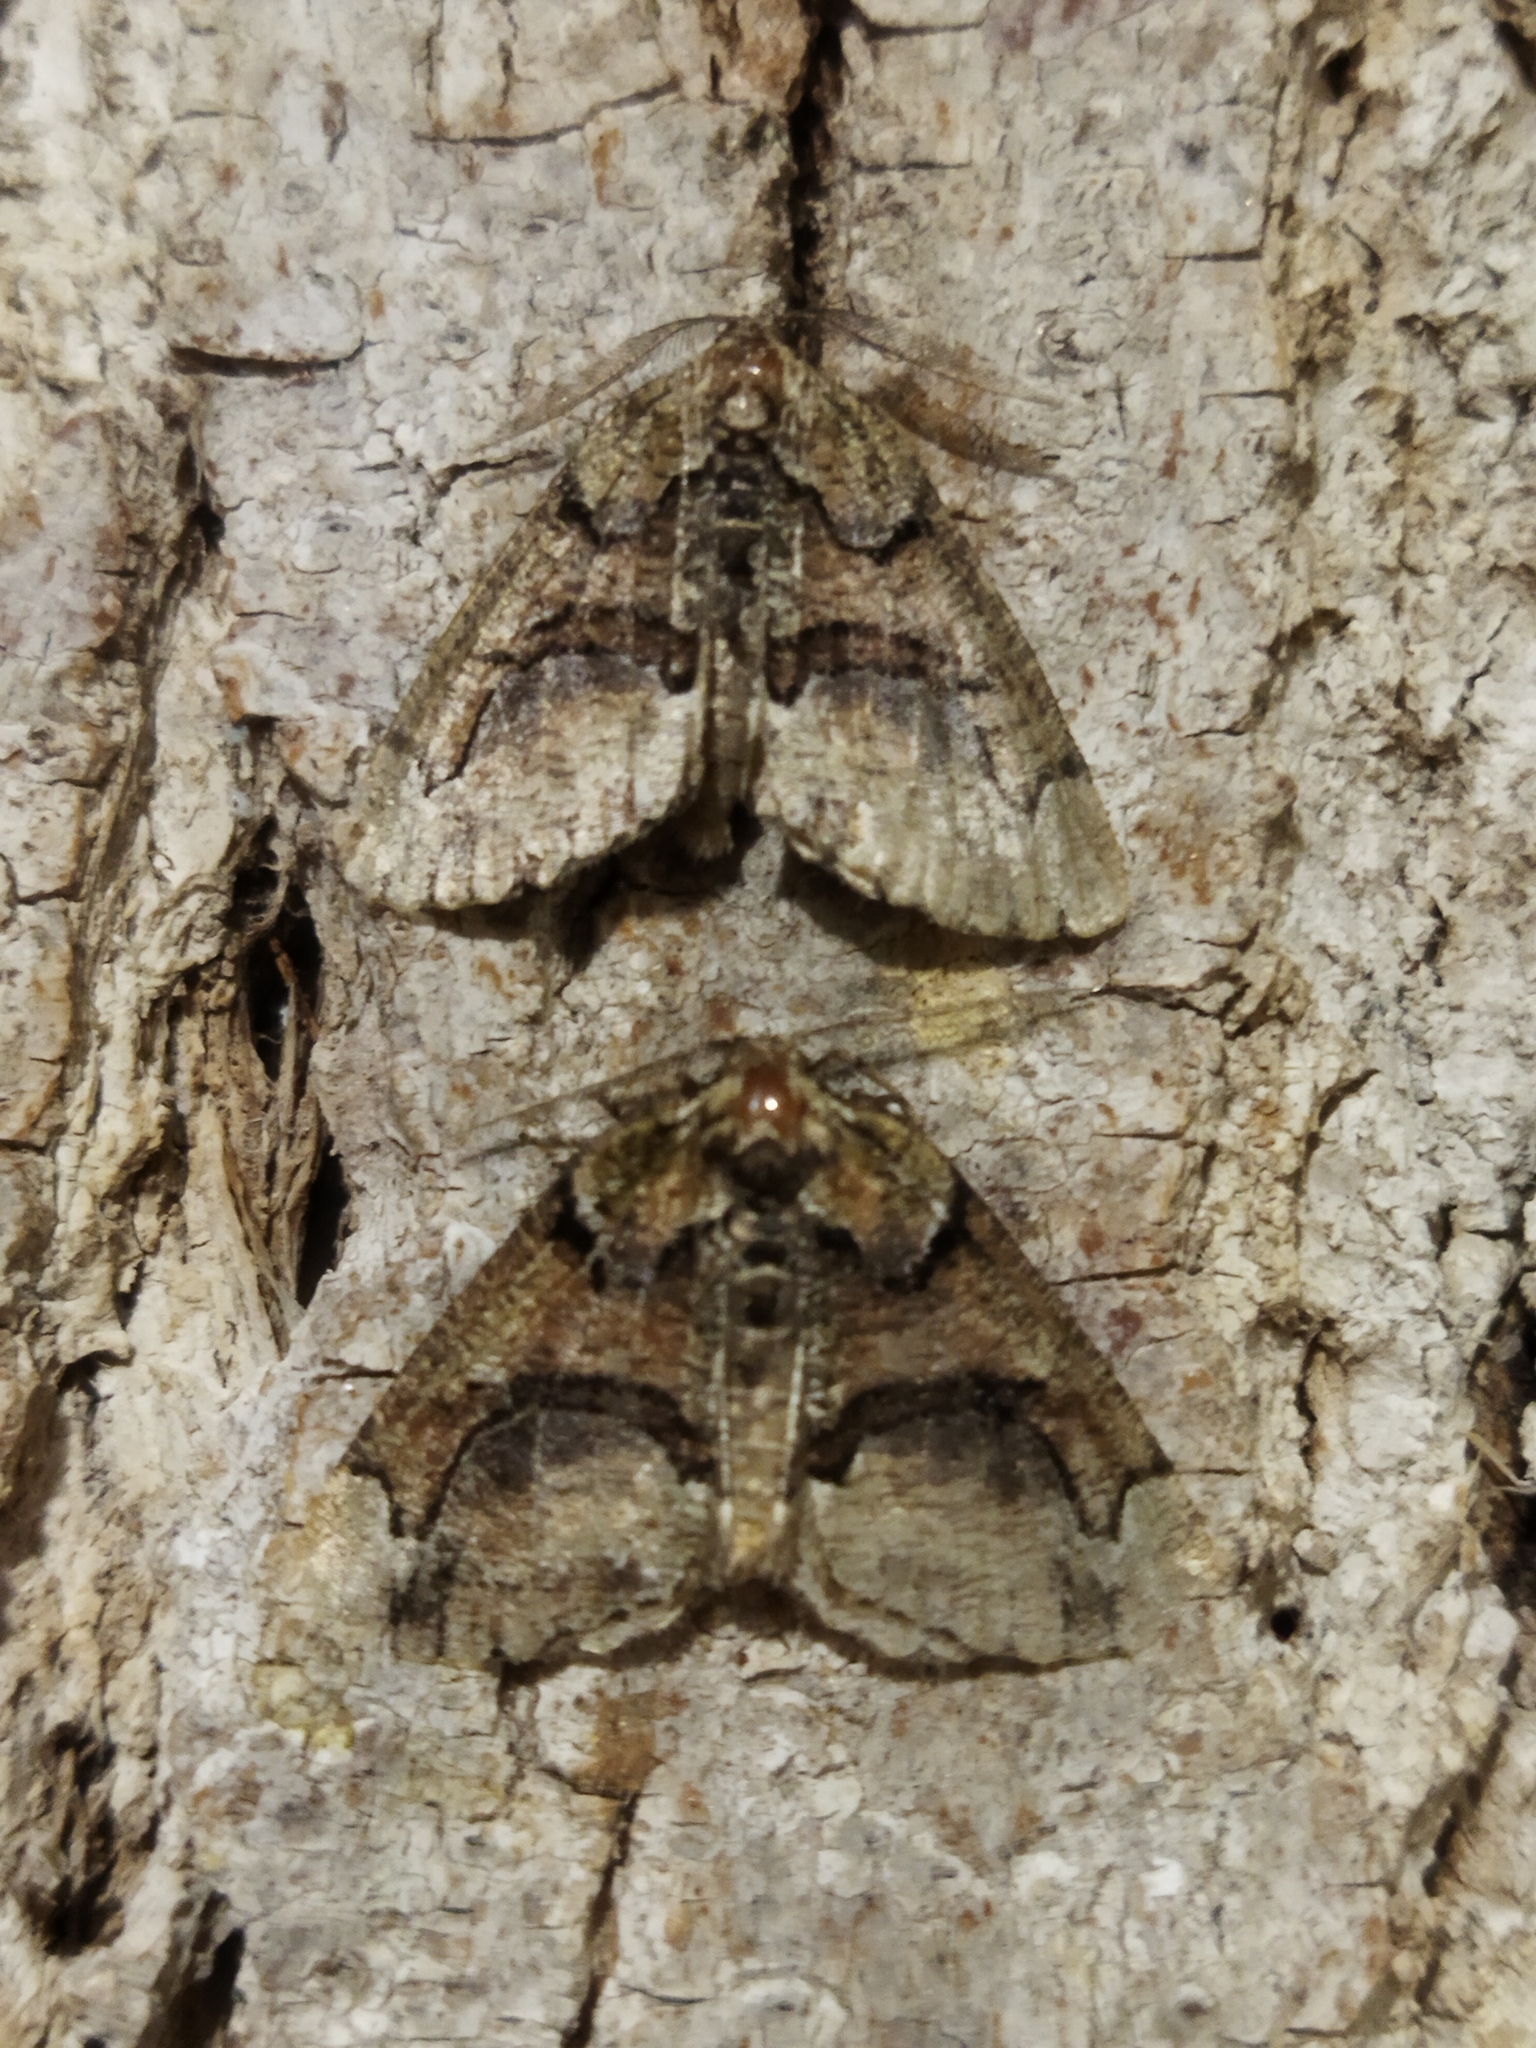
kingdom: Animalia
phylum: Arthropoda
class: Insecta
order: Lepidoptera
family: Geometridae
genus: Asovia
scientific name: Asovia maeoticaria
